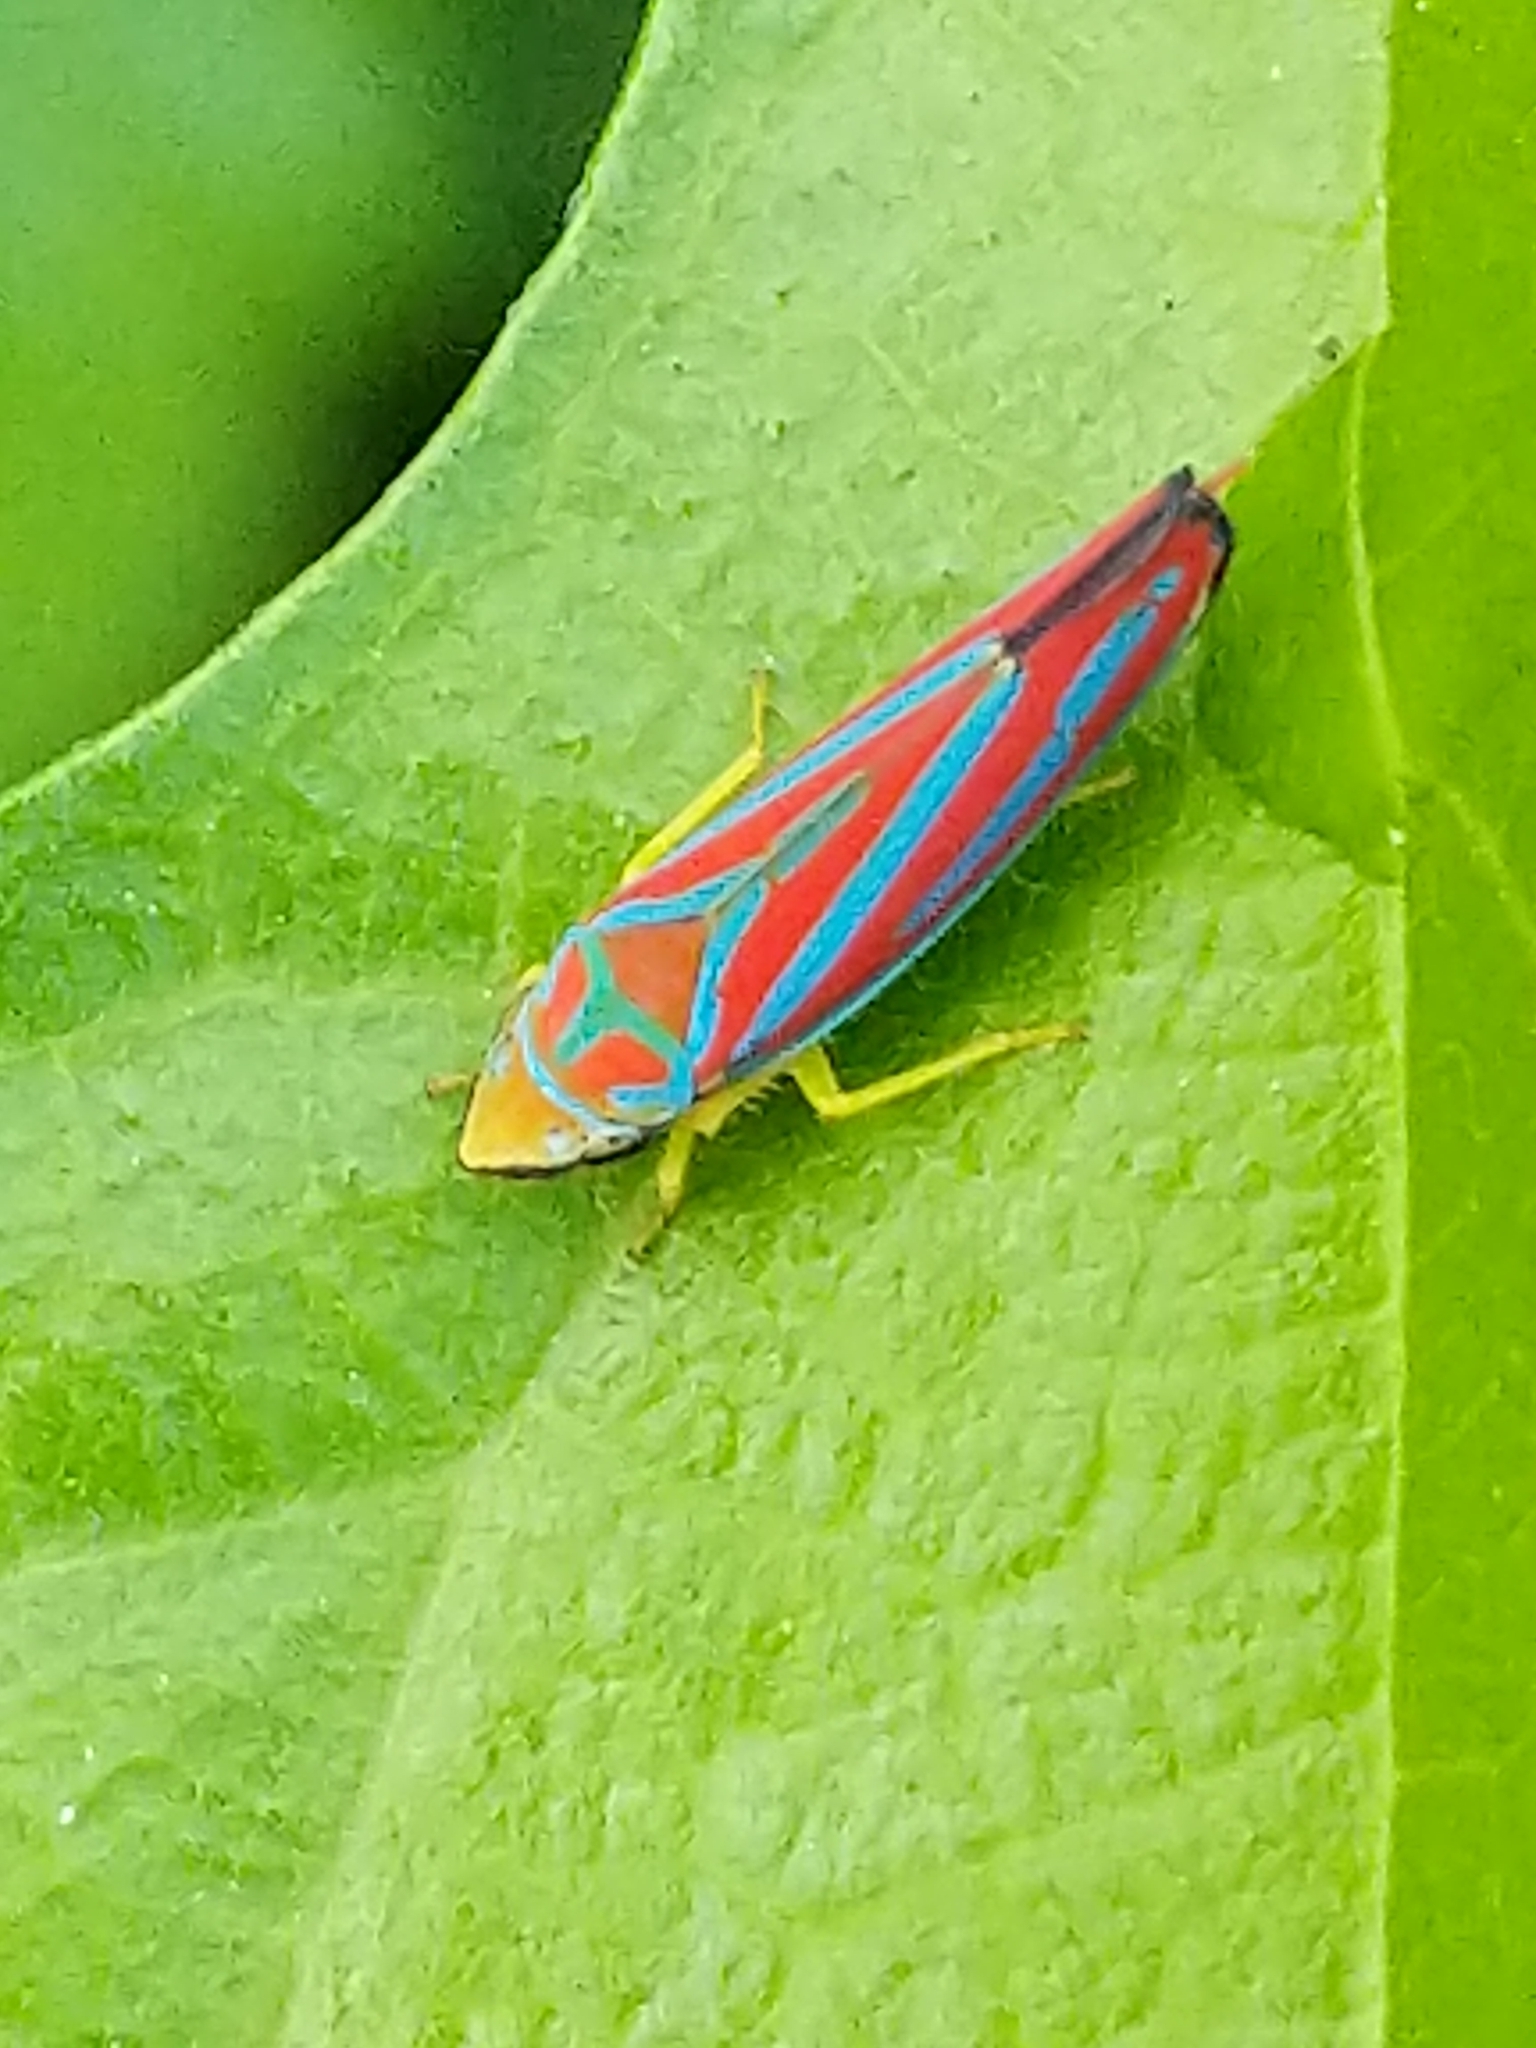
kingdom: Animalia
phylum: Arthropoda
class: Insecta
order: Hemiptera
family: Cicadellidae
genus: Graphocephala
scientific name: Graphocephala coccinea
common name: Candy-striped leafhopper
